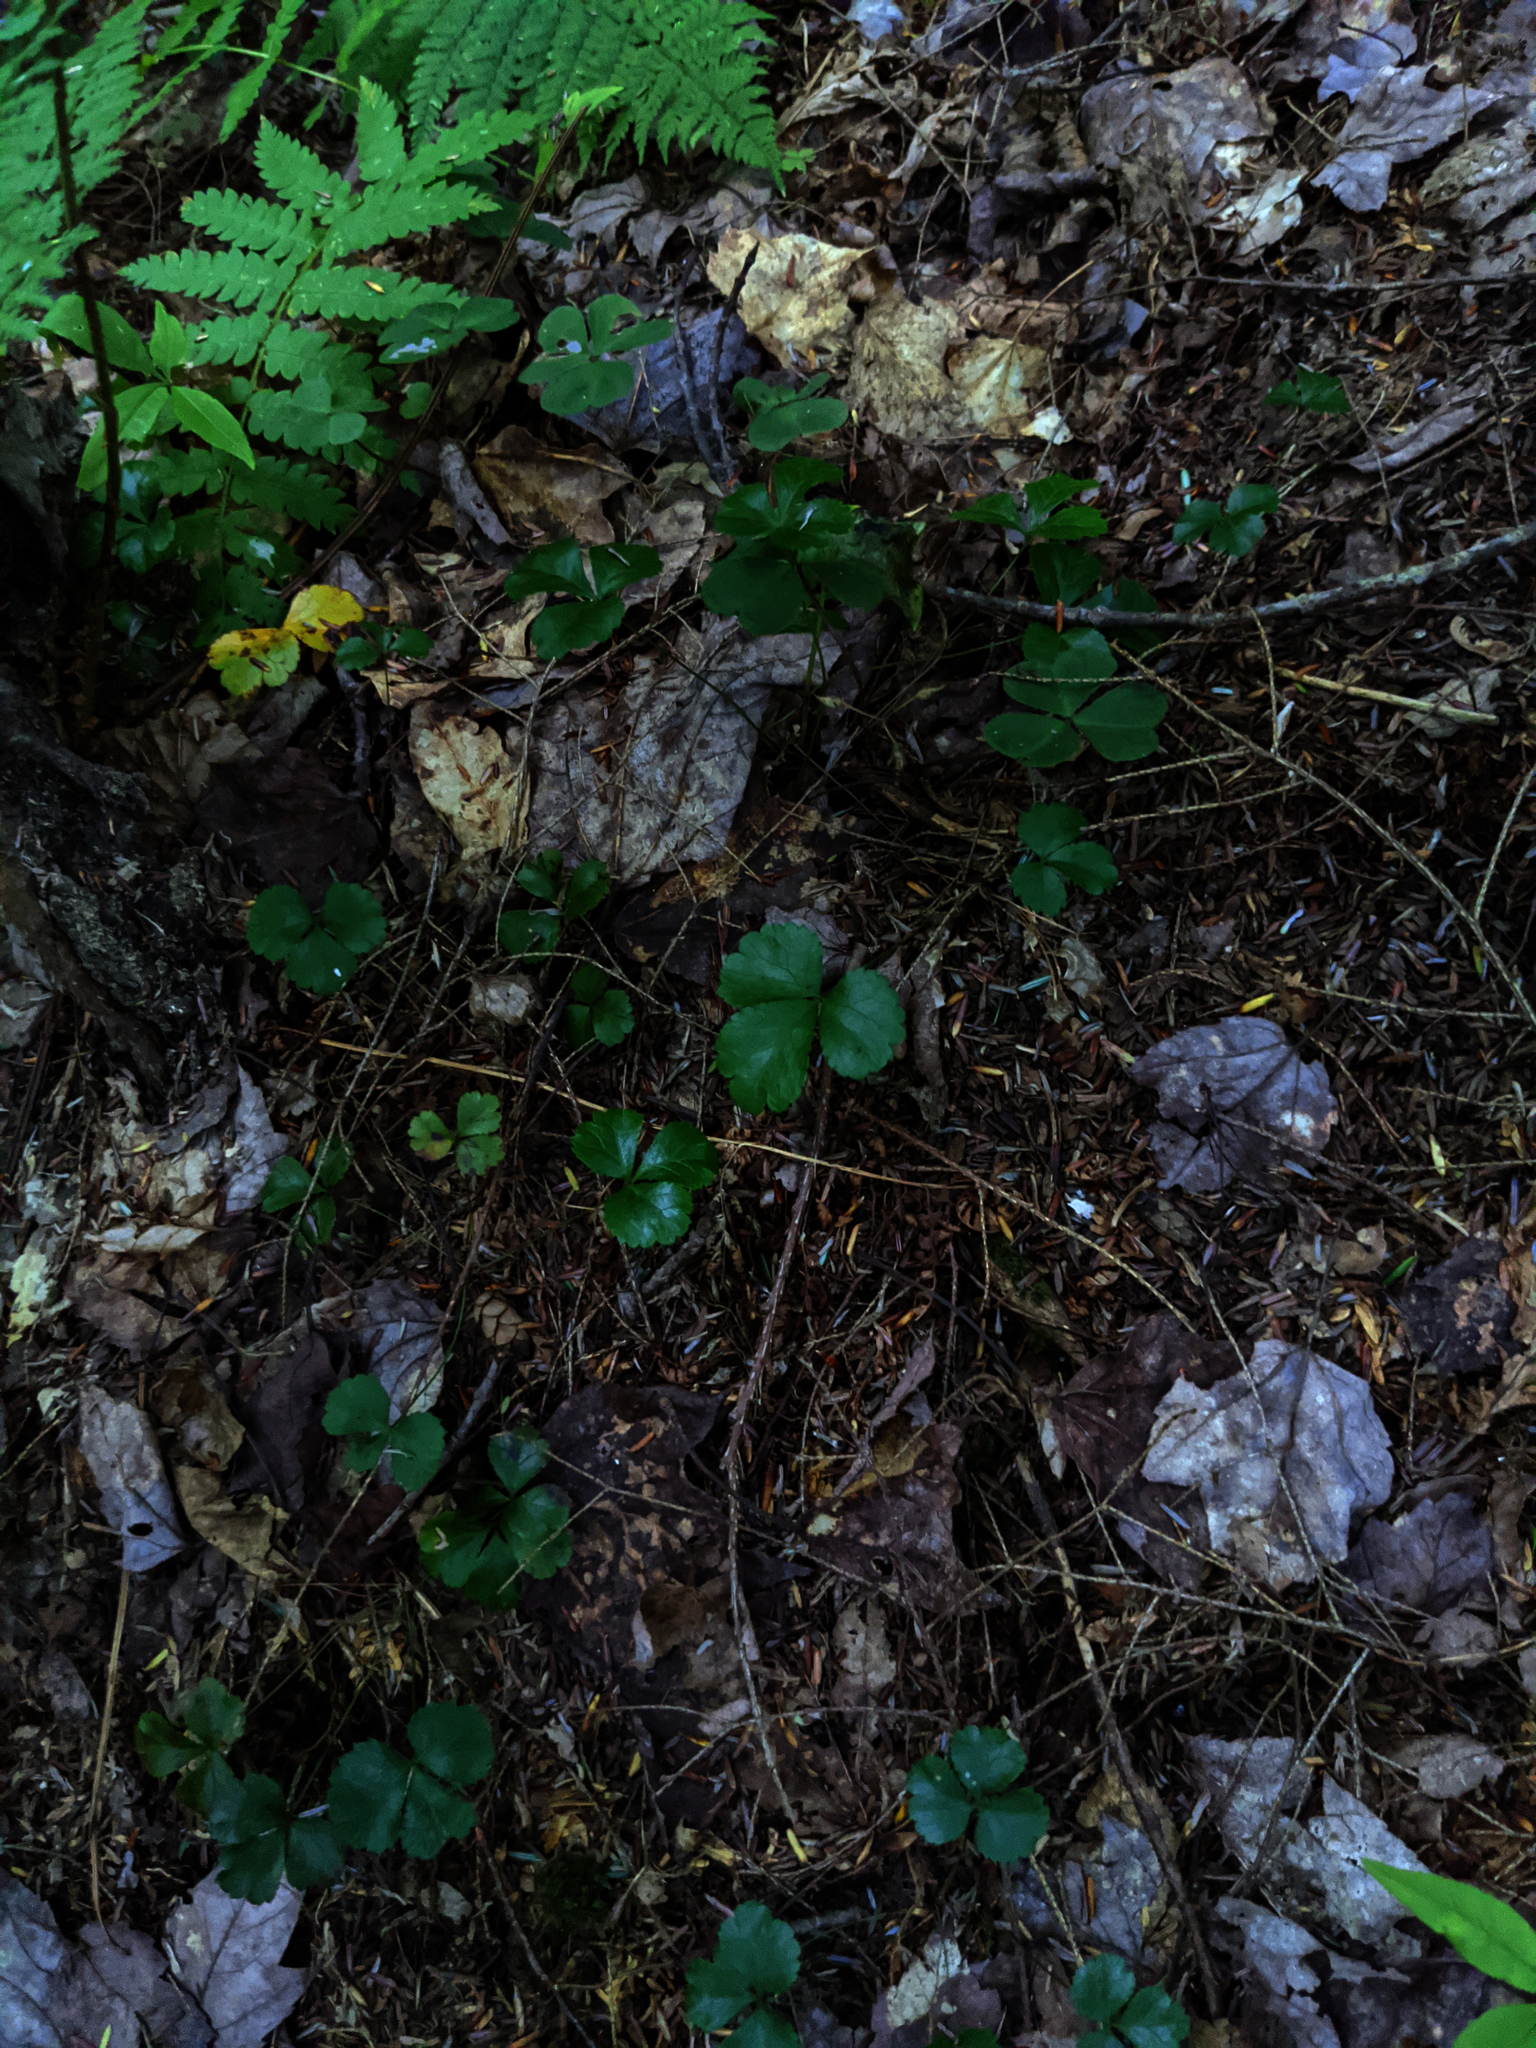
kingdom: Plantae
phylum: Tracheophyta
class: Magnoliopsida
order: Ranunculales
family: Ranunculaceae
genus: Coptis
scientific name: Coptis trifolia
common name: Canker-root
